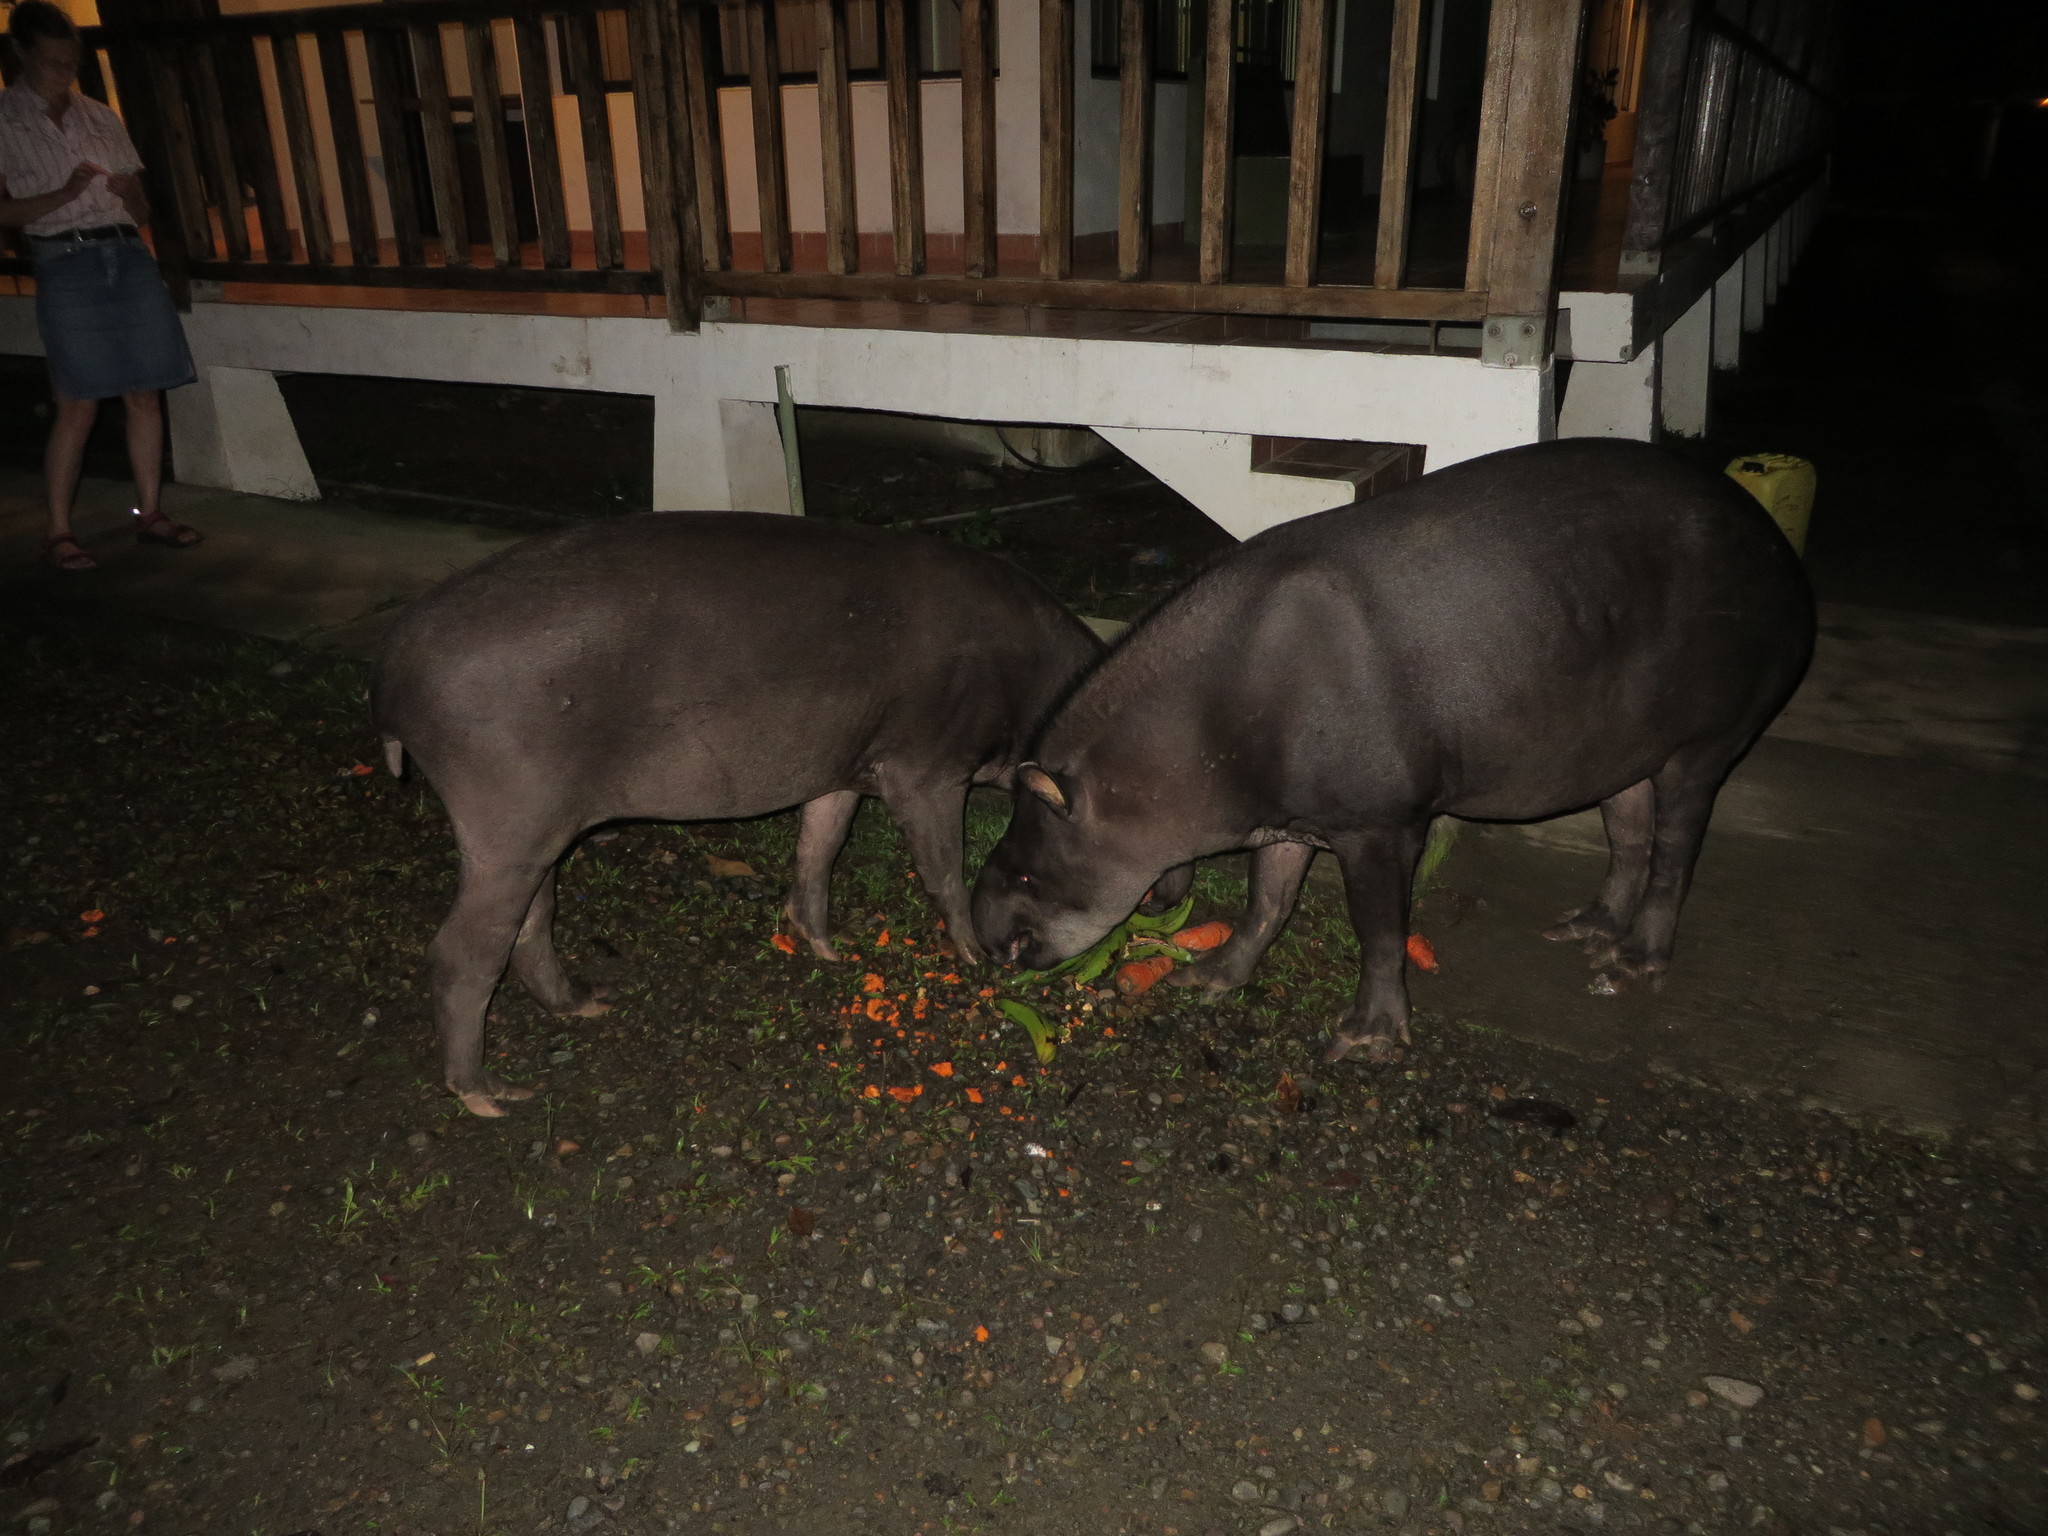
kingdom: Animalia
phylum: Chordata
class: Mammalia
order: Perissodactyla
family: Tapiridae
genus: Tapirus
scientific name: Tapirus terrestris
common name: Brazilian tapir
